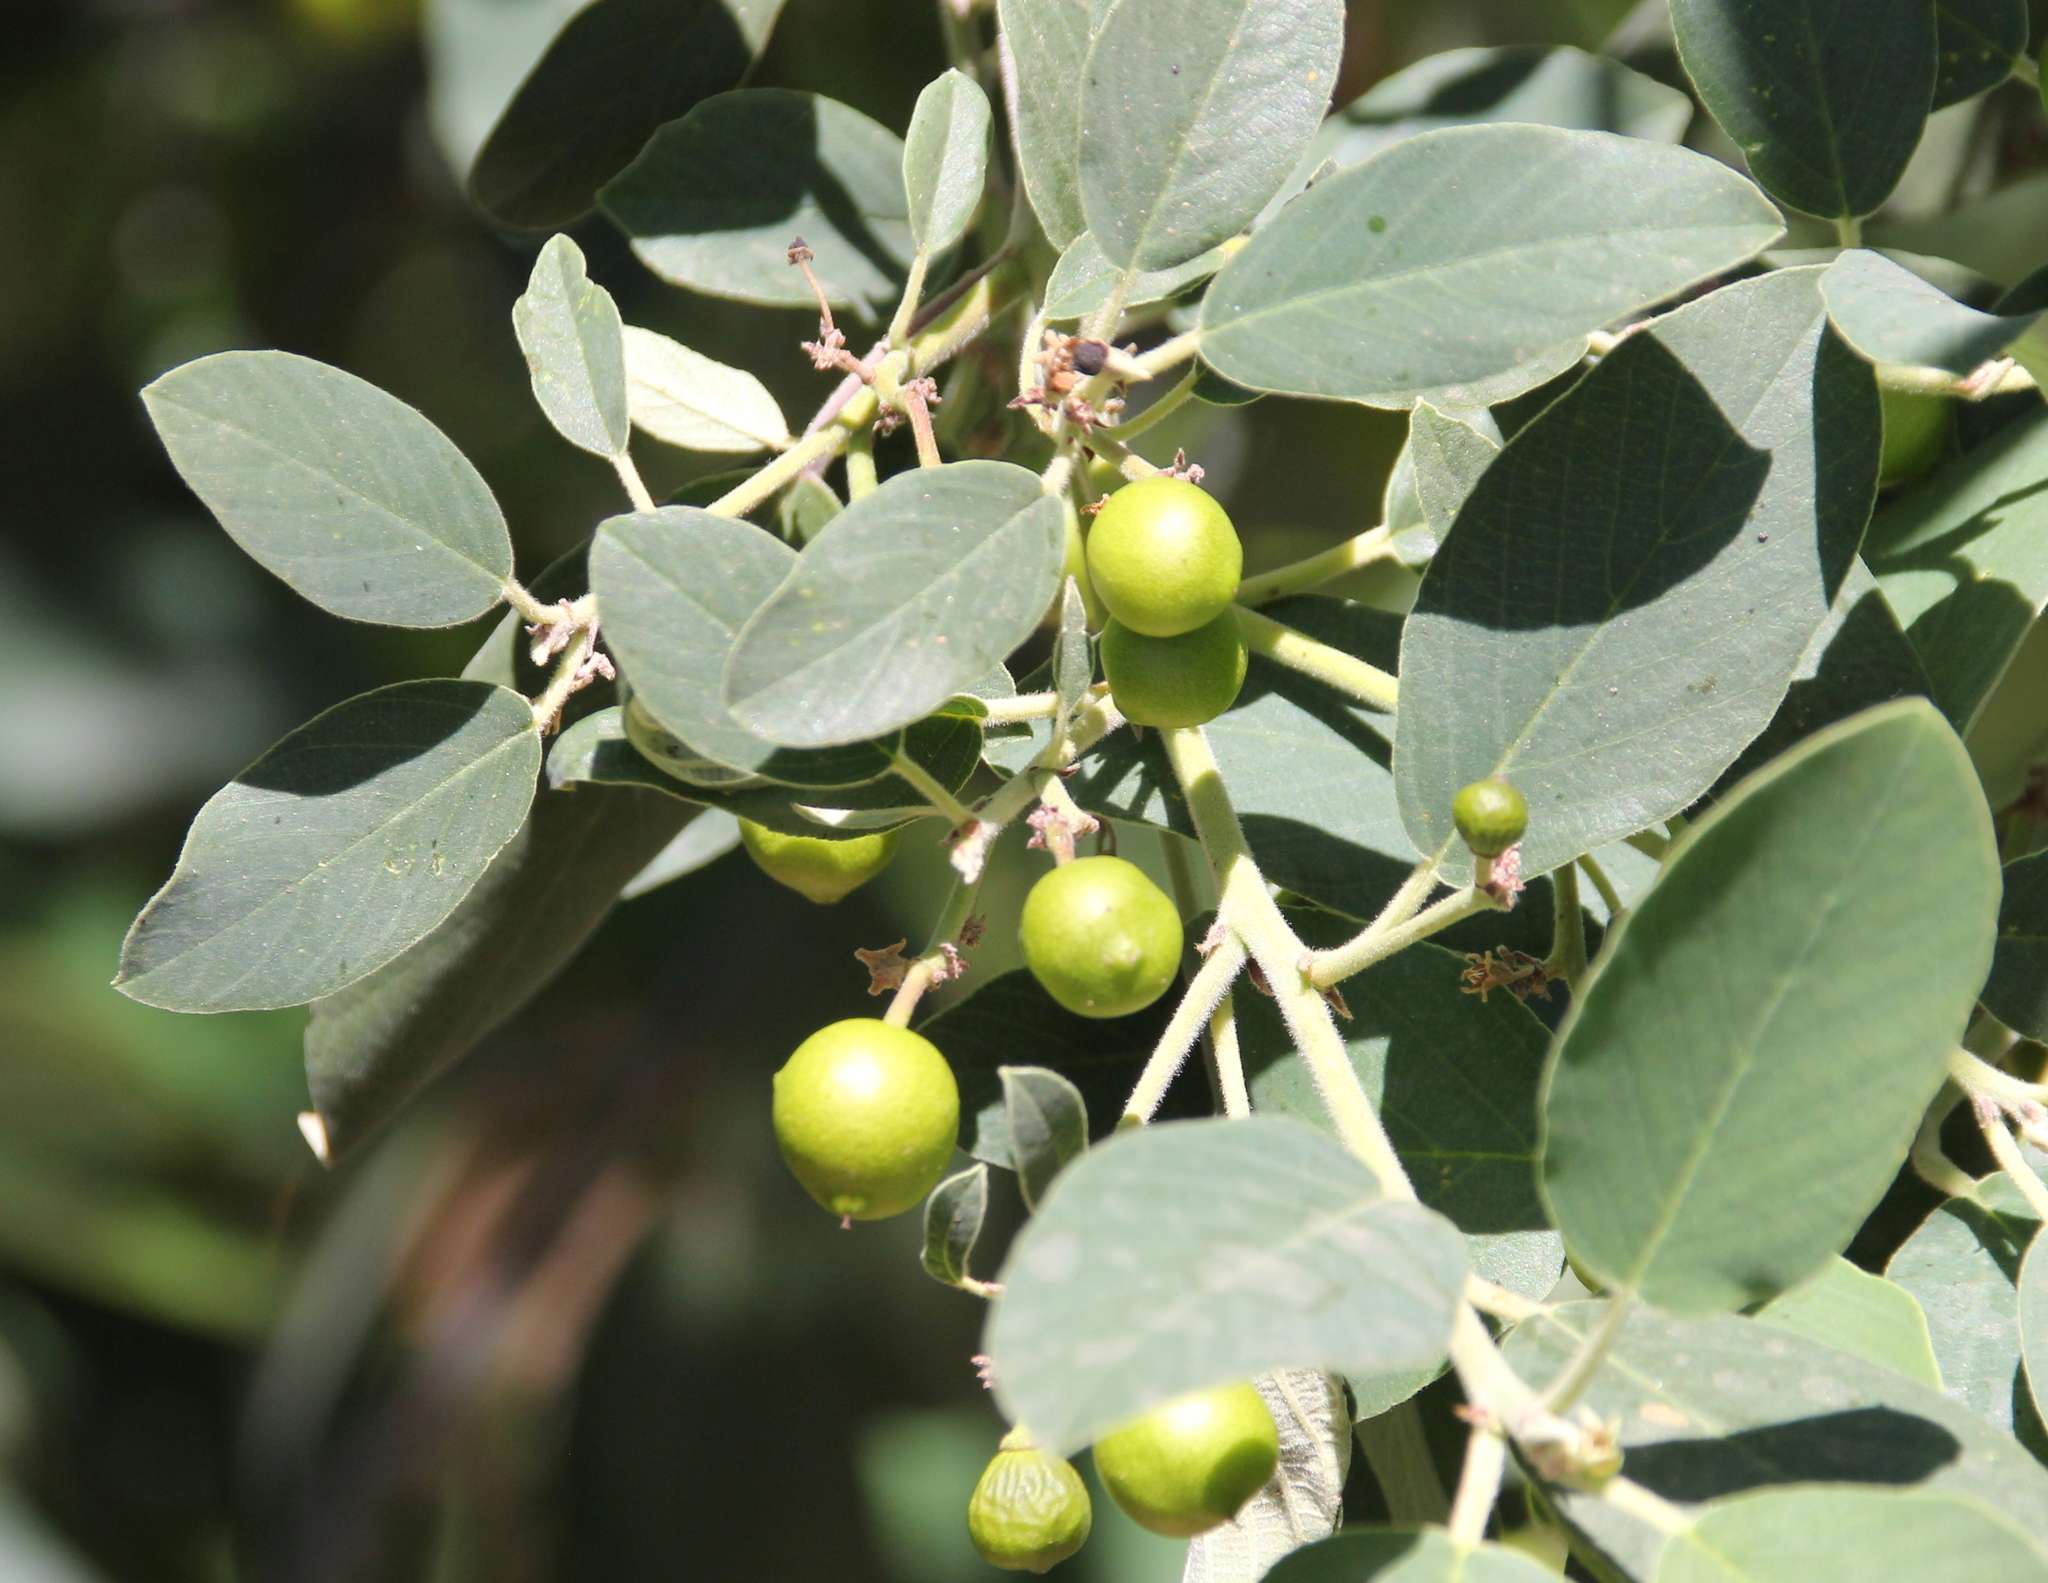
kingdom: Plantae
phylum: Tracheophyta
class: Magnoliopsida
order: Rosales
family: Rhamnaceae
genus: Frangula
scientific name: Frangula californica
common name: California buckthorn
